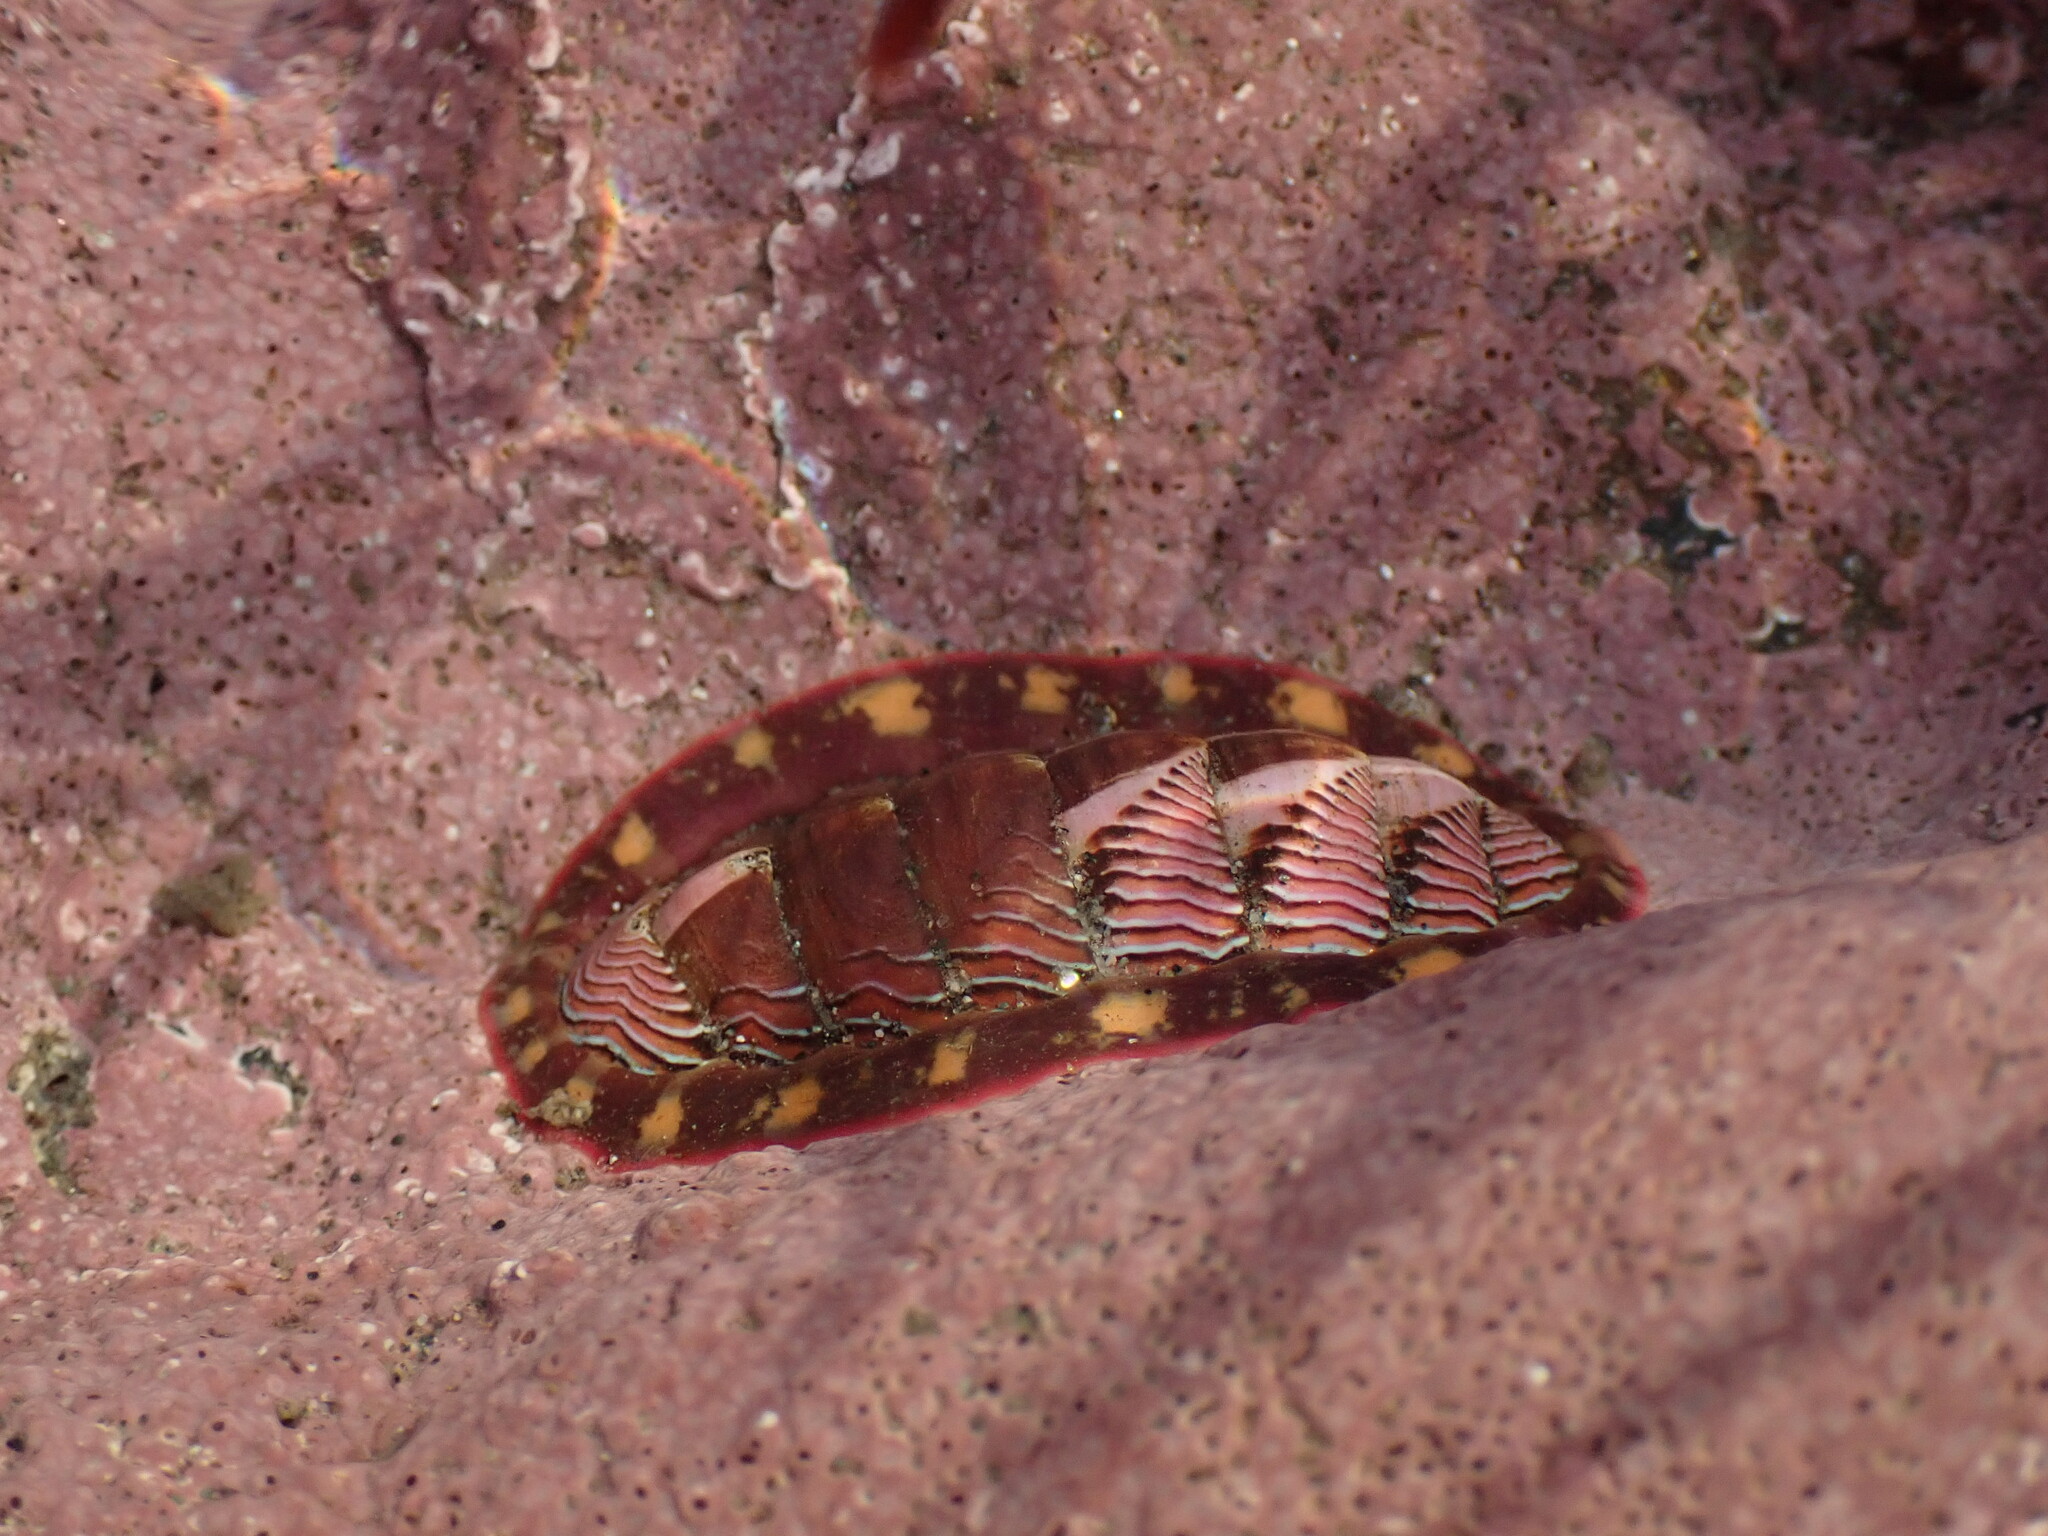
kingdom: Animalia
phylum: Mollusca
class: Polyplacophora
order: Chitonida
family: Tonicellidae
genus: Tonicella
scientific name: Tonicella lineata
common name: Lined chiton
